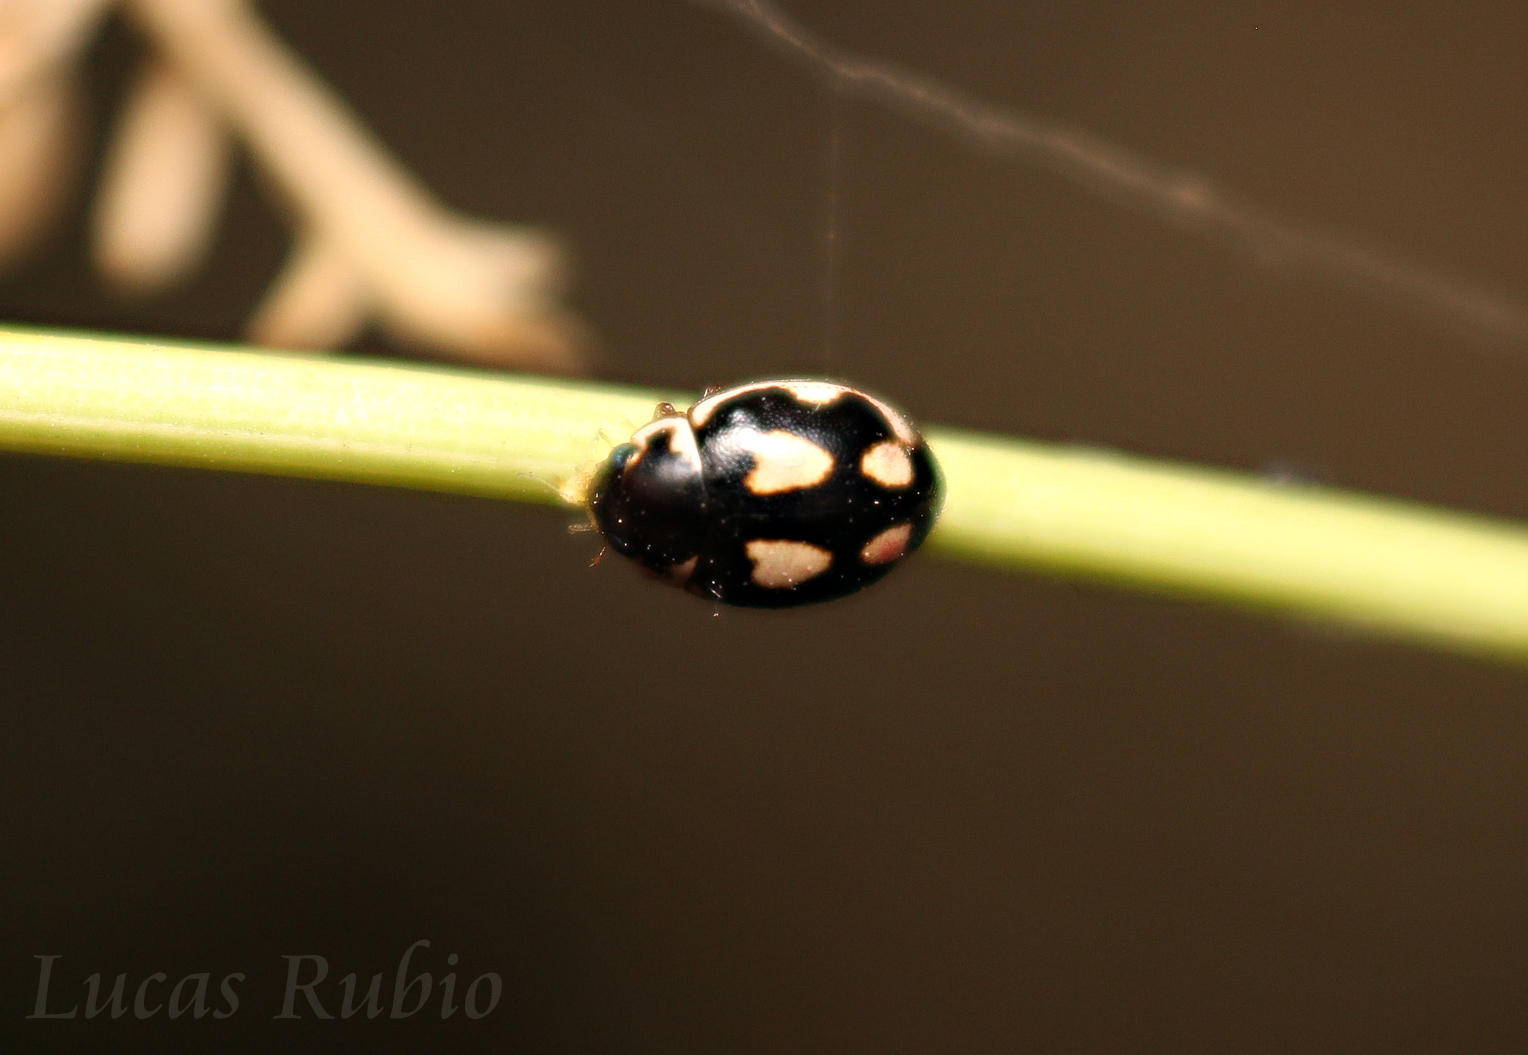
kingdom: Animalia
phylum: Arthropoda
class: Insecta
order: Coleoptera
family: Coccinellidae
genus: Hyperaspis
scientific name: Hyperaspis festiva
